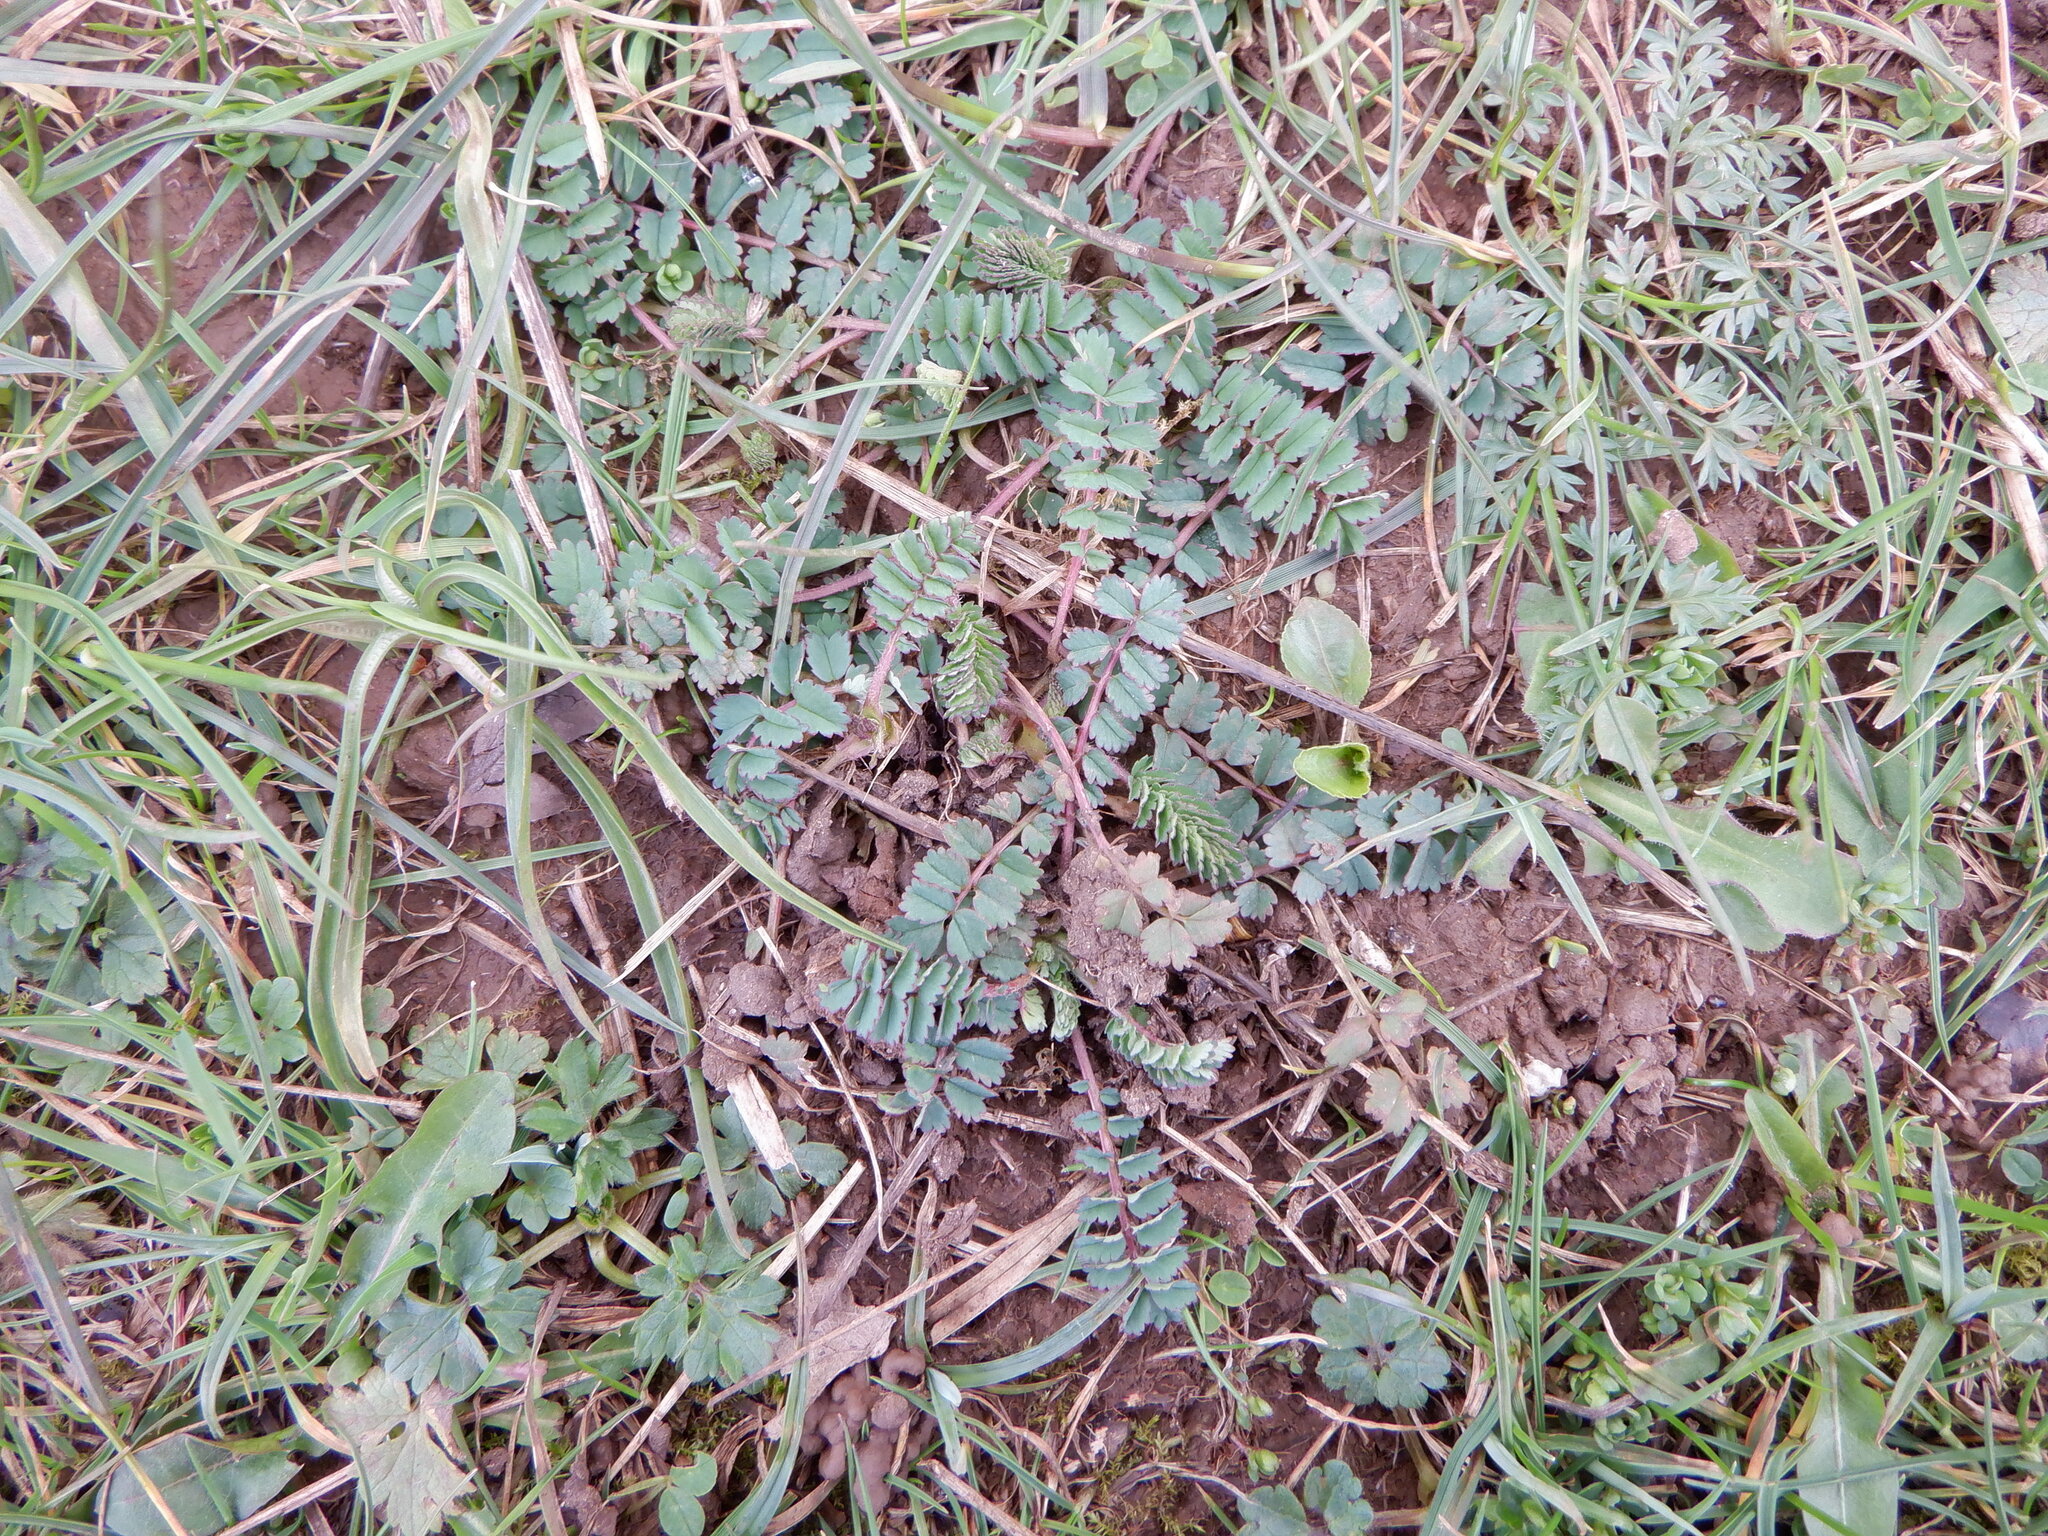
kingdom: Plantae
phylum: Tracheophyta
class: Magnoliopsida
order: Rosales
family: Rosaceae
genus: Poterium
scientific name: Poterium sanguisorba
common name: Salad burnet
